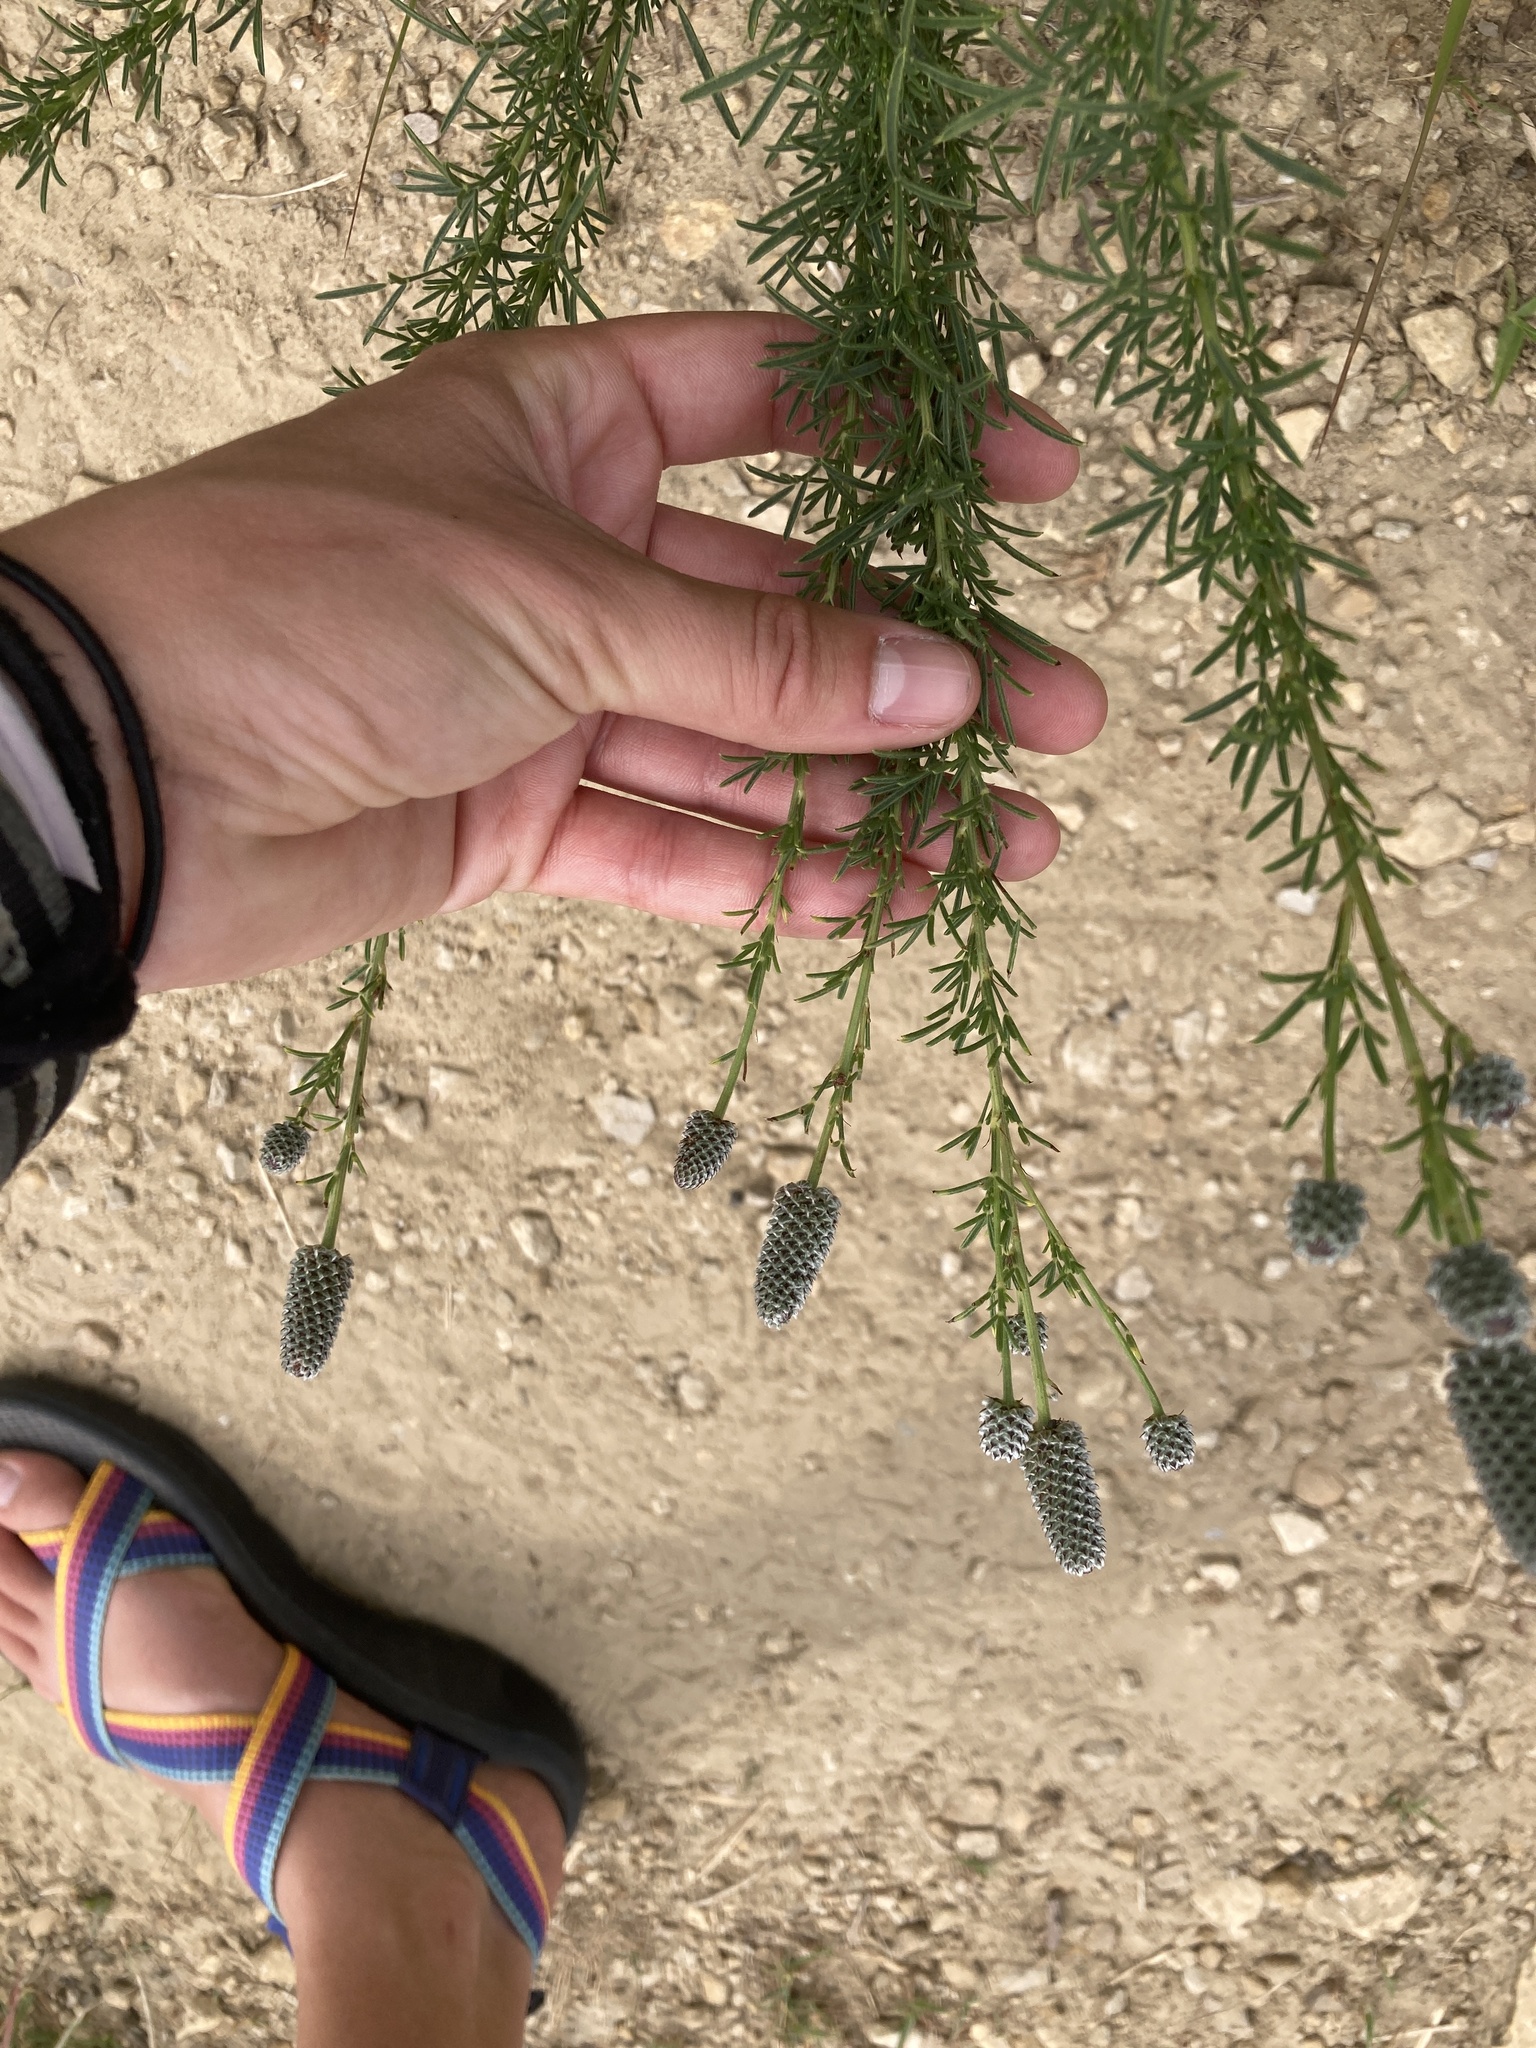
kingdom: Plantae
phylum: Tracheophyta
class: Magnoliopsida
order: Fabales
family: Fabaceae
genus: Dalea
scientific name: Dalea purpurea
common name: Purple prairie-clover
